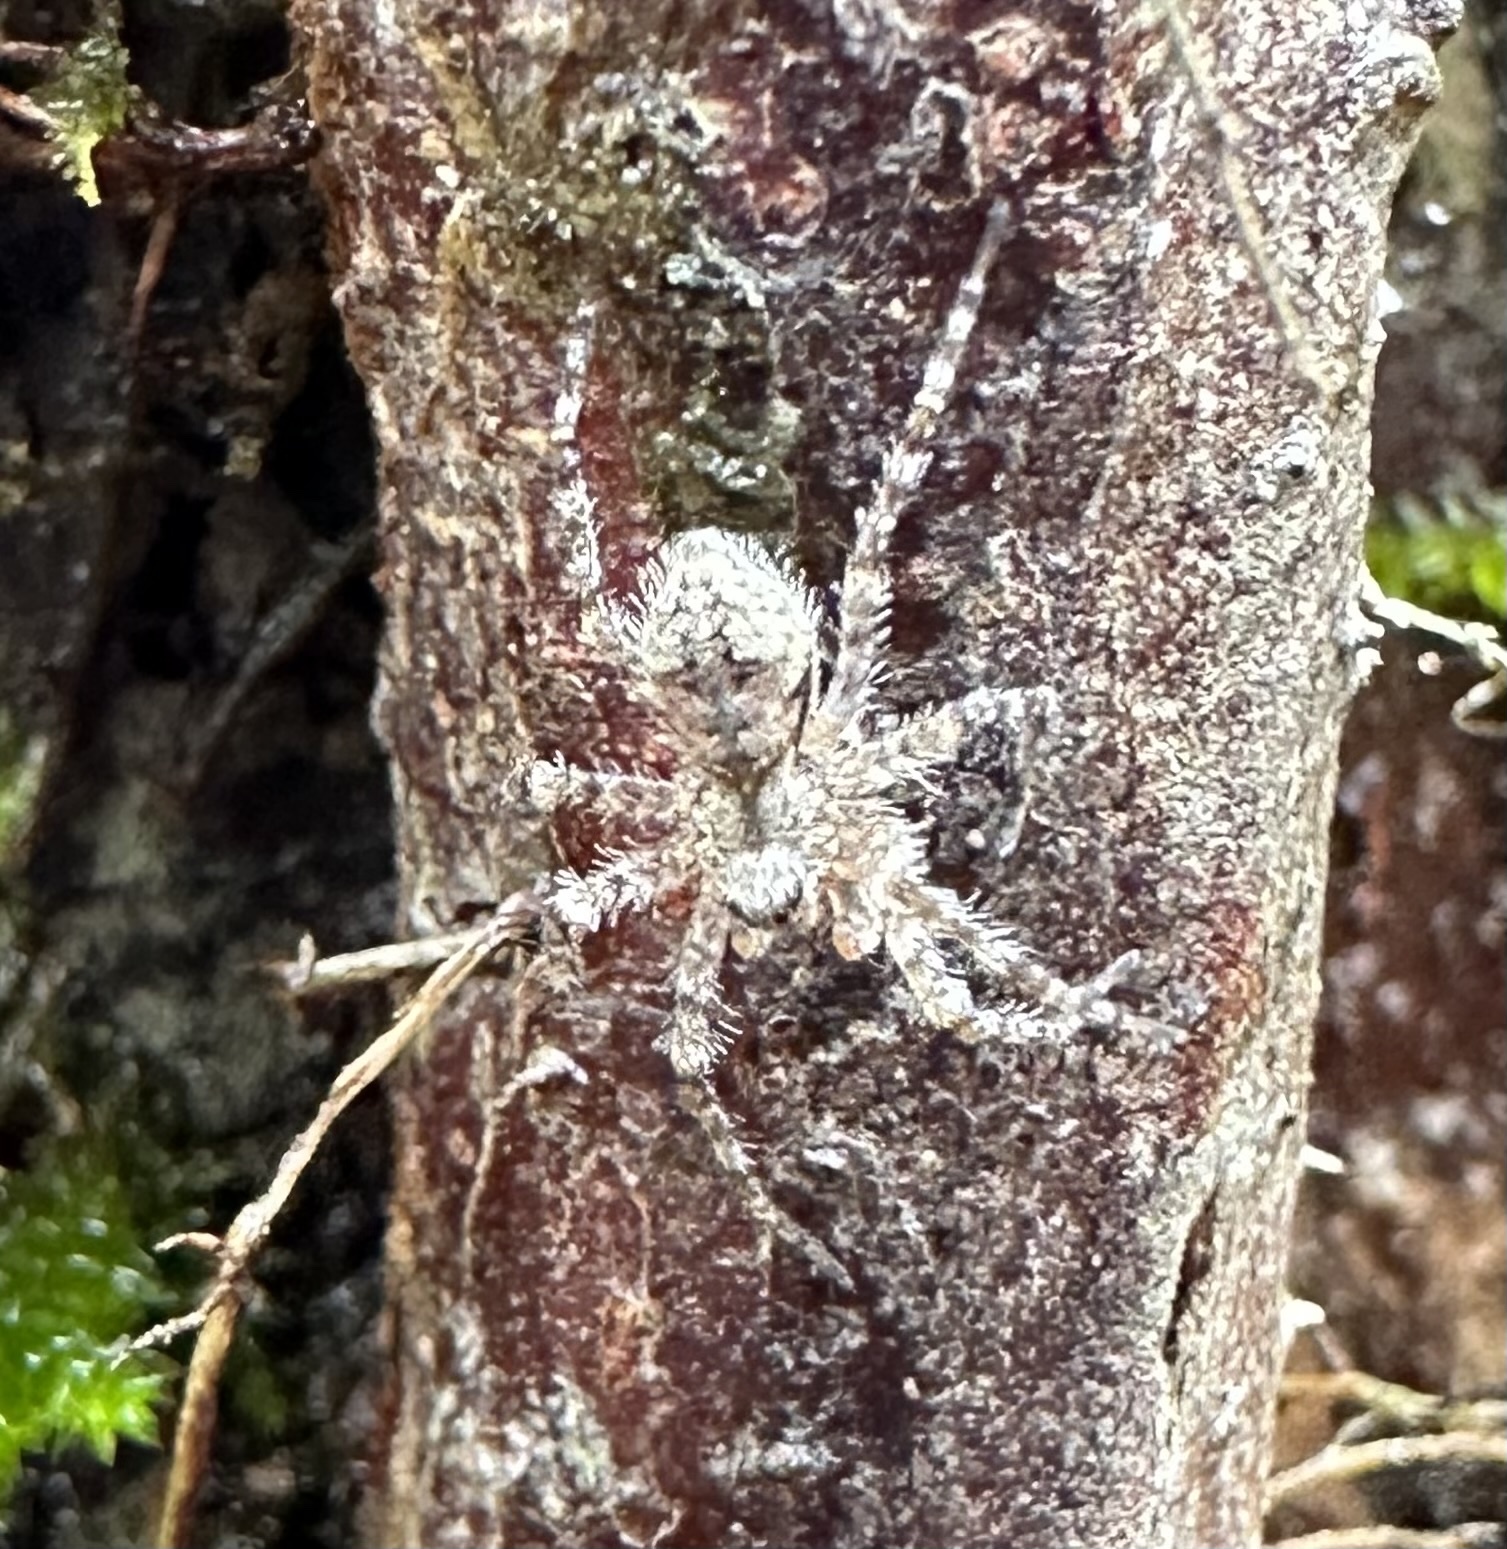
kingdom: Animalia
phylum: Arthropoda
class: Arachnida
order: Araneae
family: Pisauridae
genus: Dolomedes
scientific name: Dolomedes albineus
